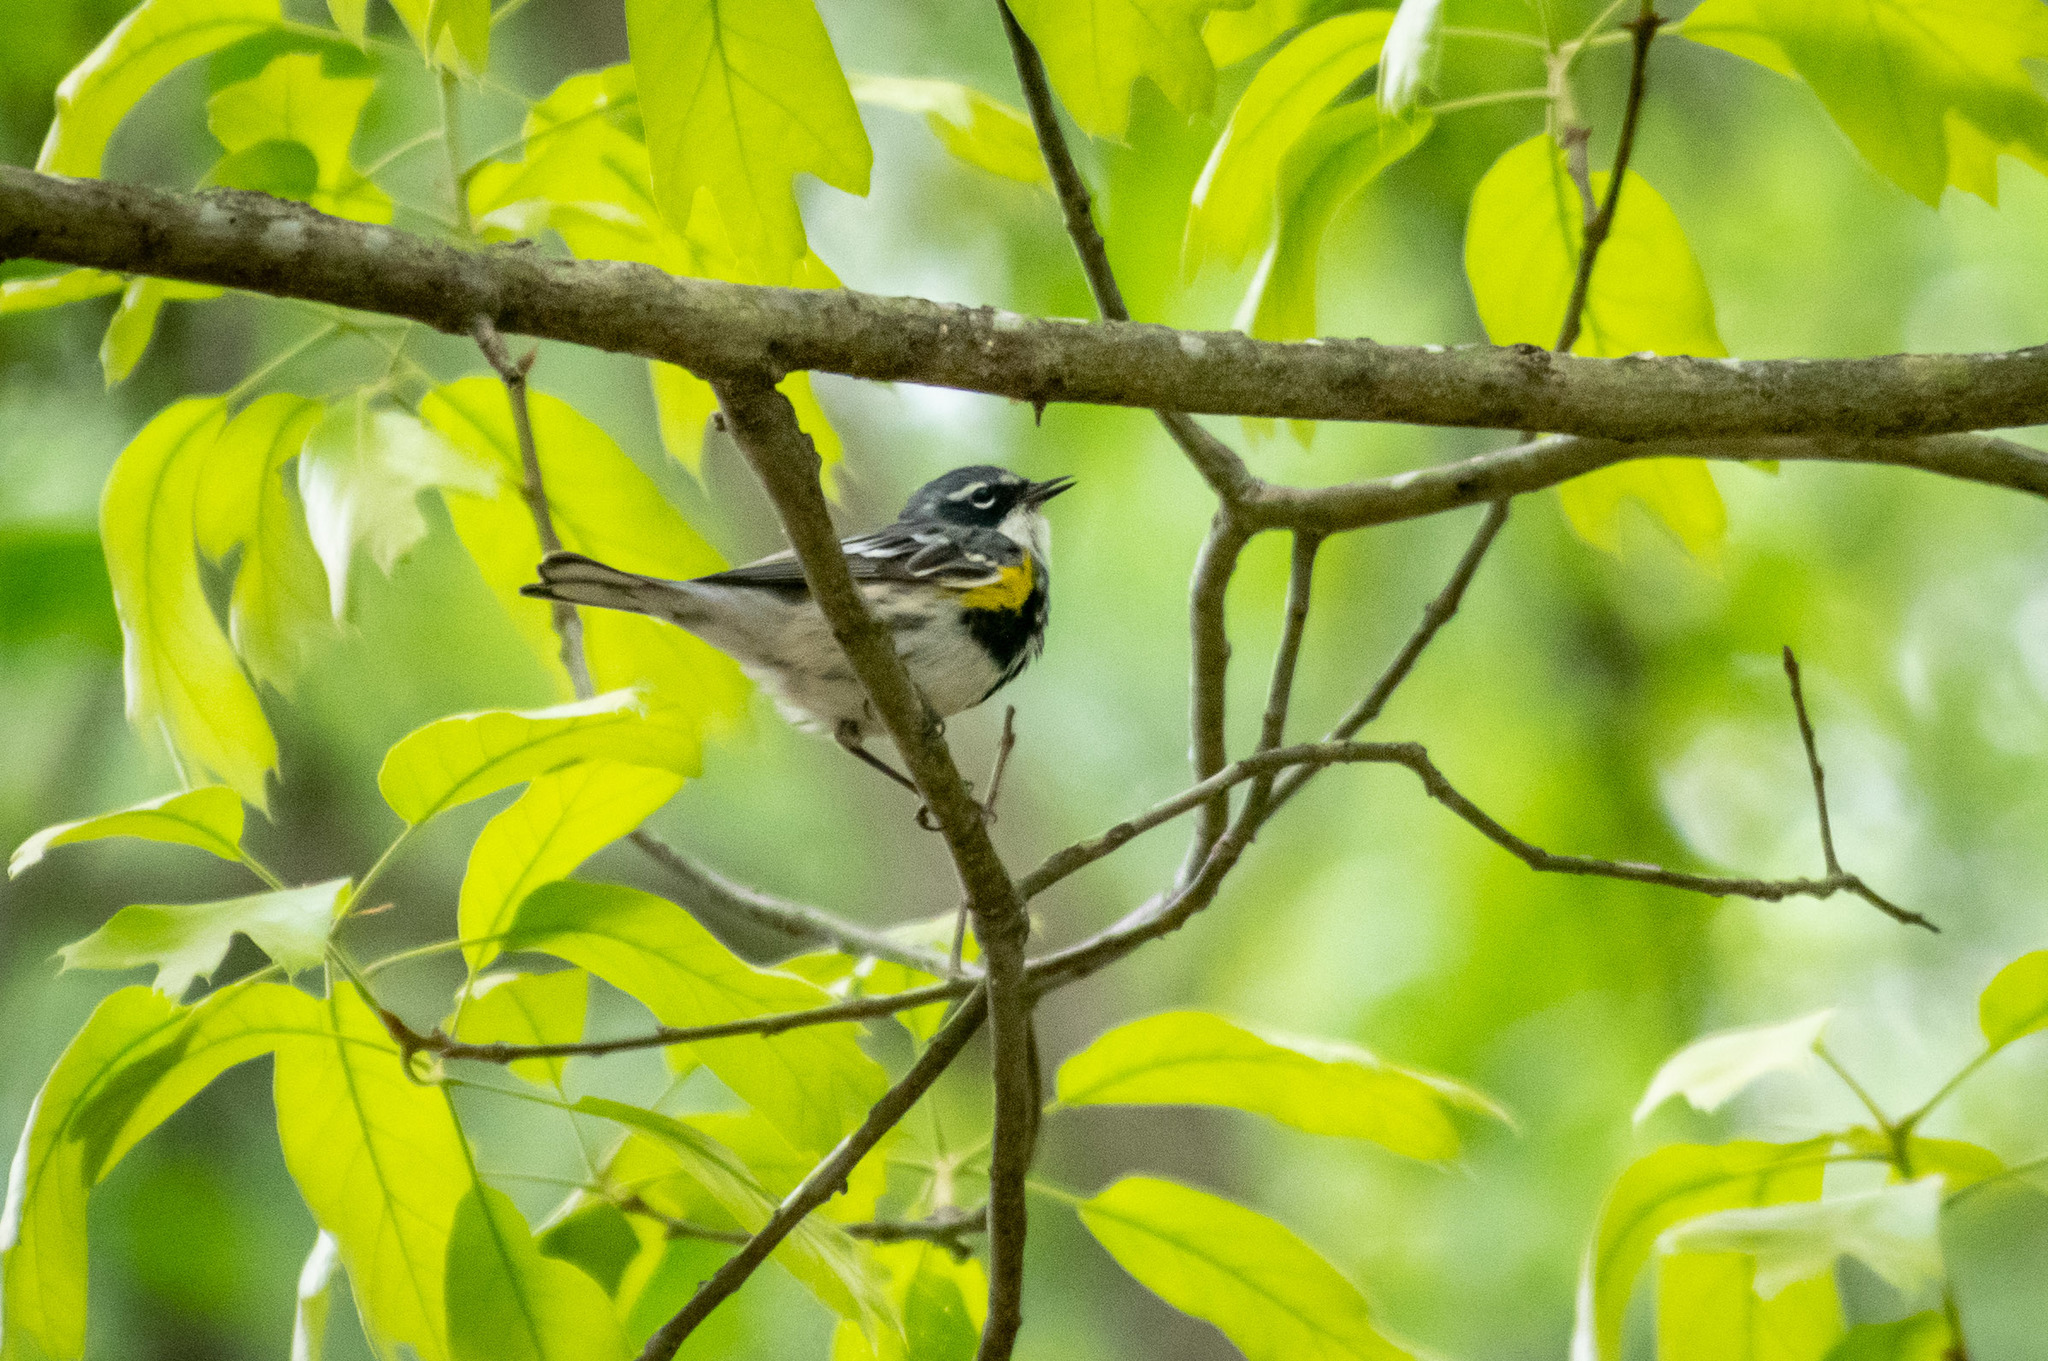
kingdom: Animalia
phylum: Chordata
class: Aves
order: Passeriformes
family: Parulidae
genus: Setophaga
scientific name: Setophaga coronata
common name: Myrtle warbler
